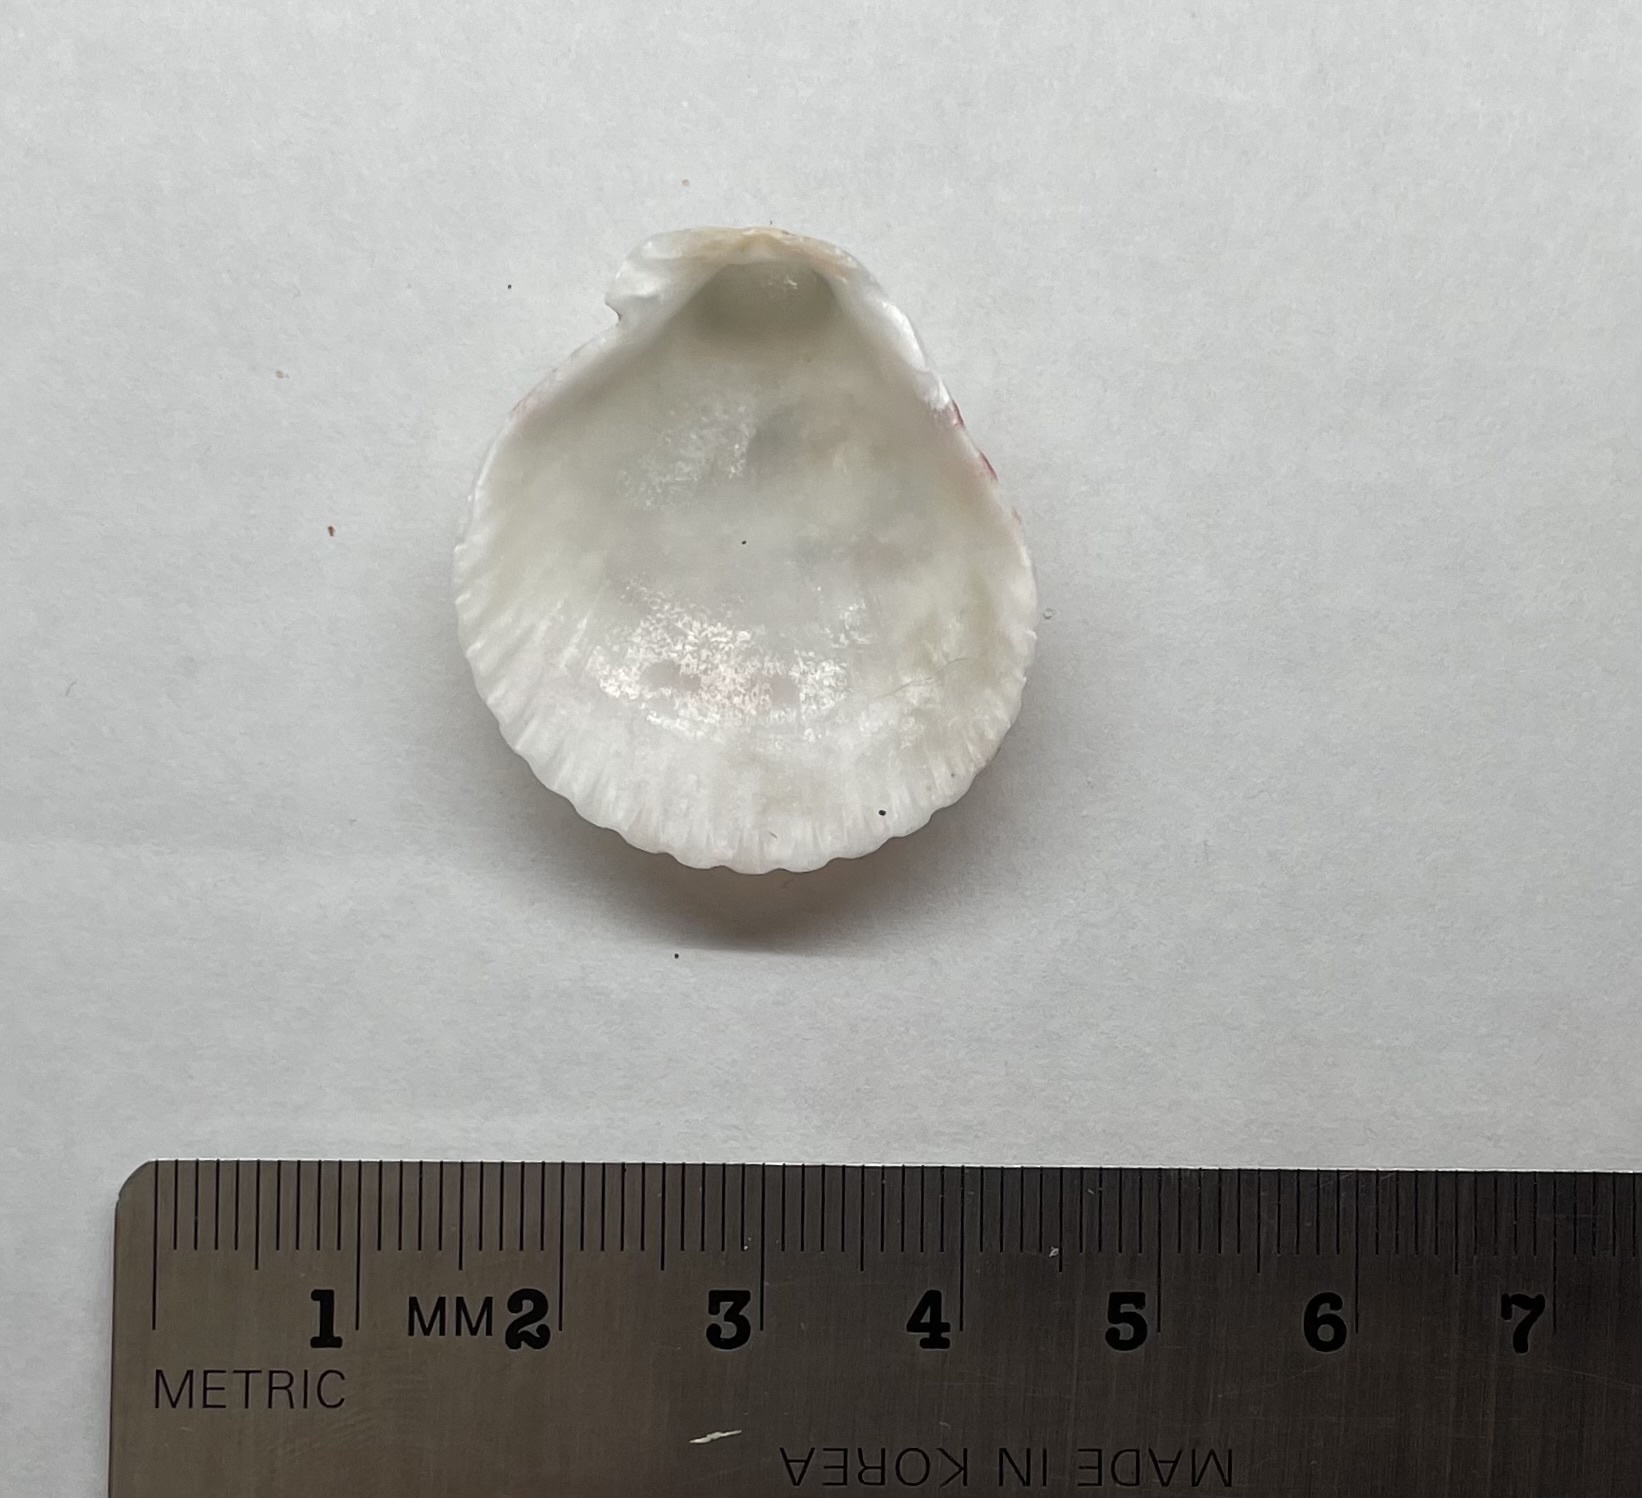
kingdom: Animalia
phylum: Mollusca
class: Bivalvia
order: Pectinida
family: Pectinidae
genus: Argopecten
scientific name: Argopecten gibbus
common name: Atlantic calico scallop
